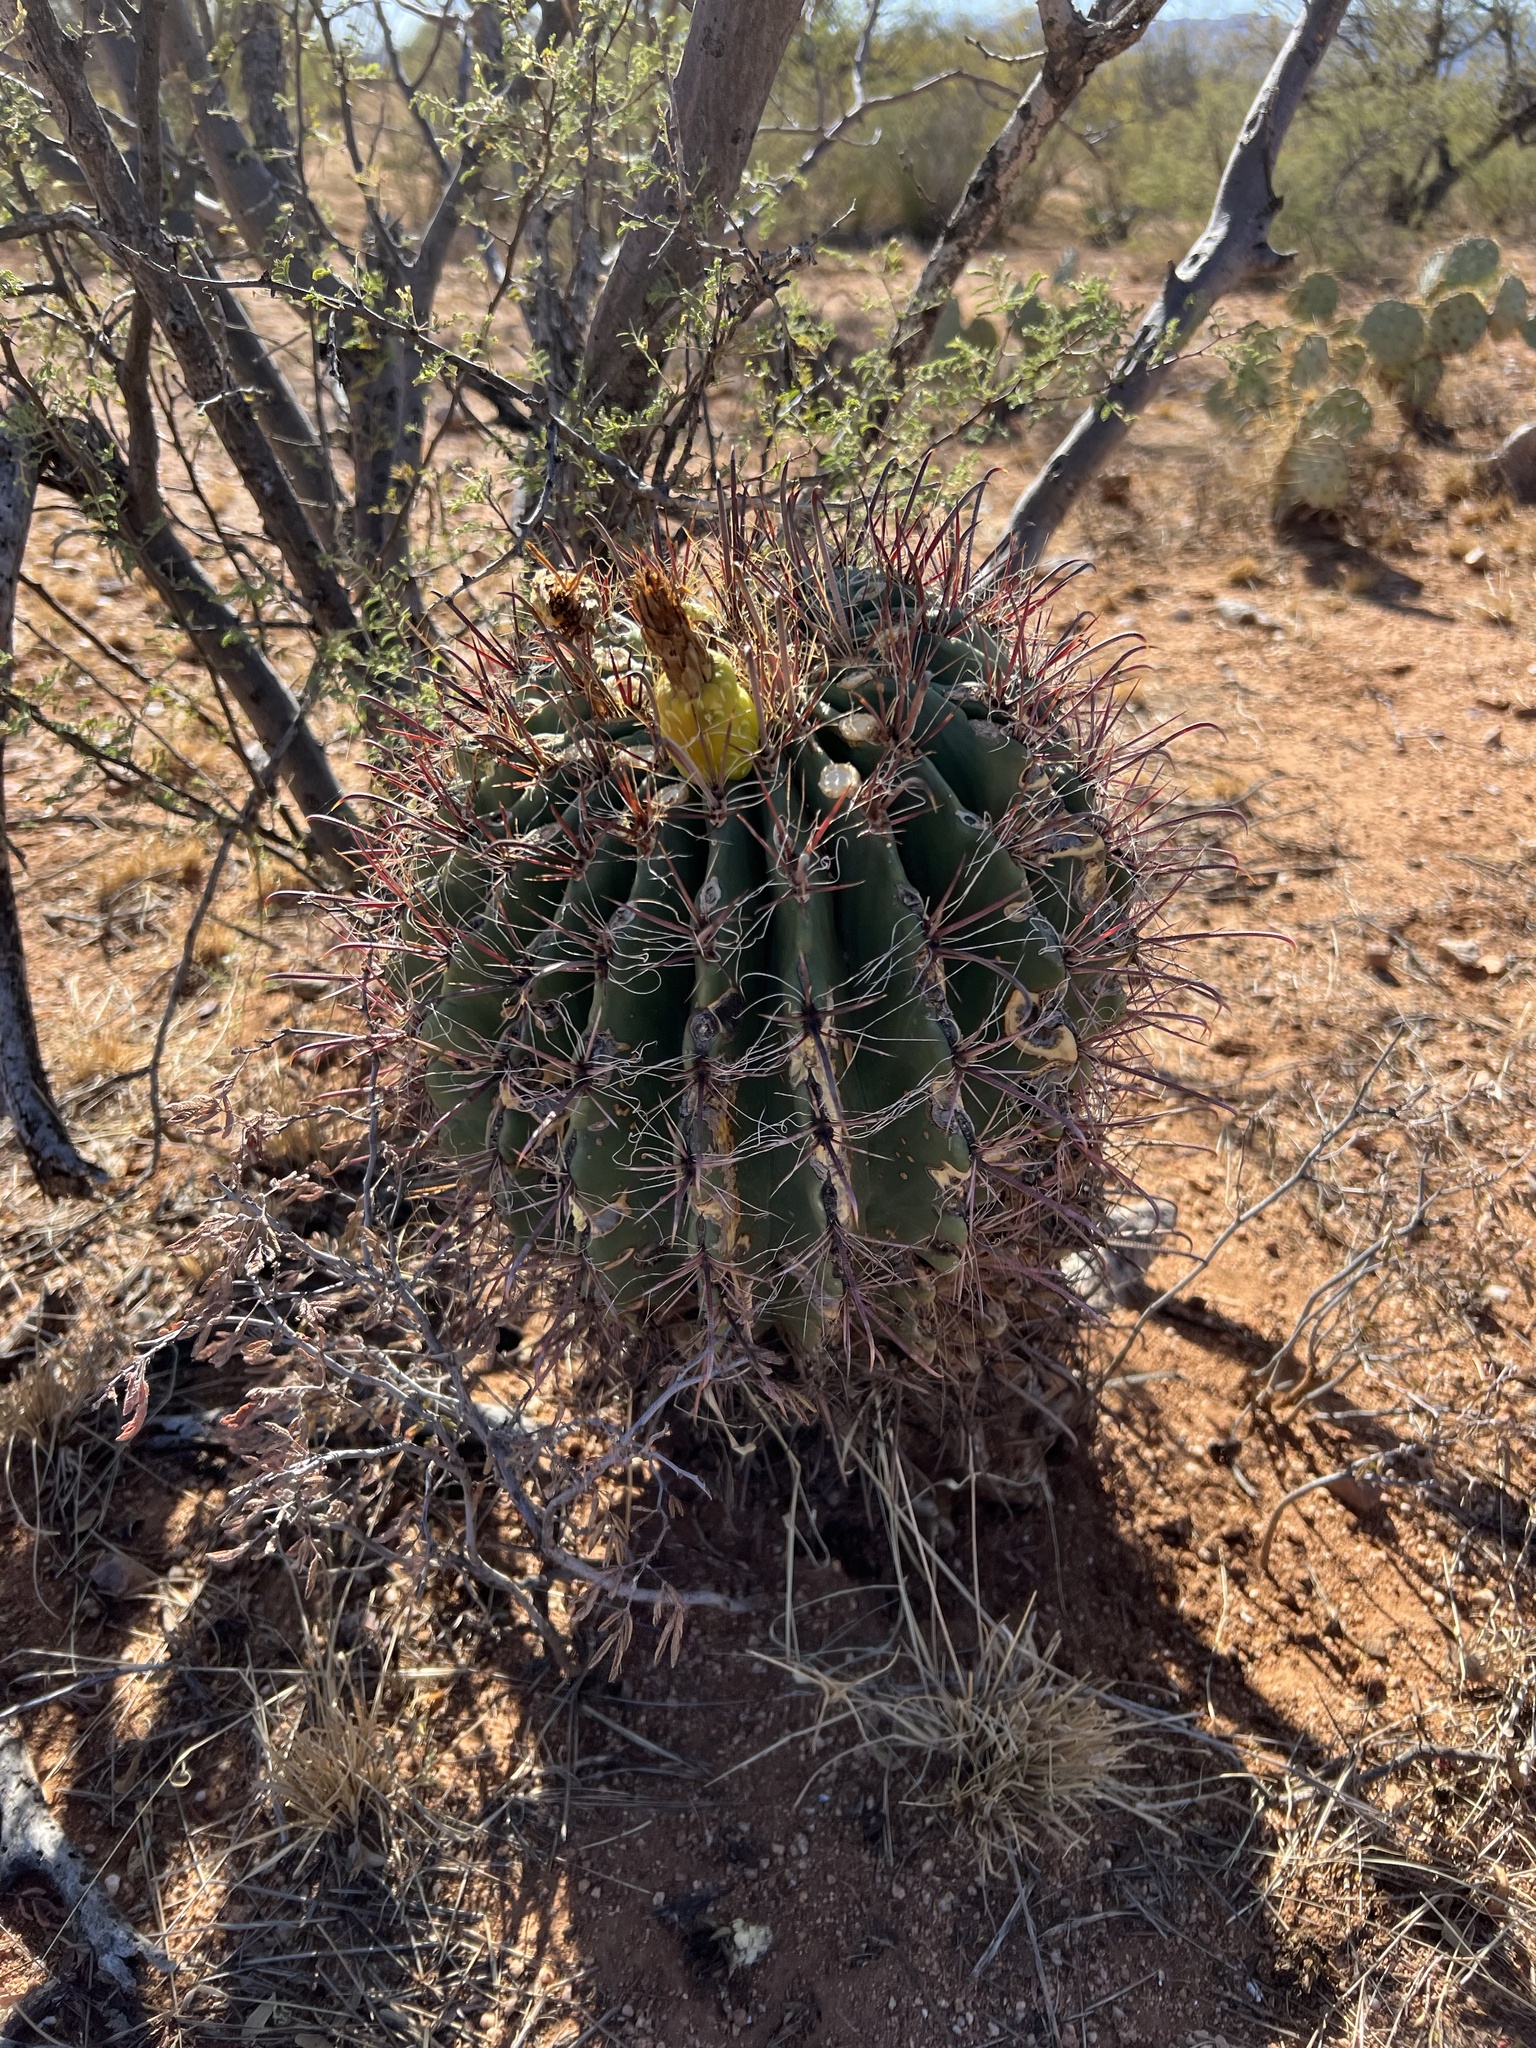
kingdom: Plantae
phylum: Tracheophyta
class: Magnoliopsida
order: Caryophyllales
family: Cactaceae
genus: Ferocactus
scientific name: Ferocactus wislizeni
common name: Candy barrel cactus
